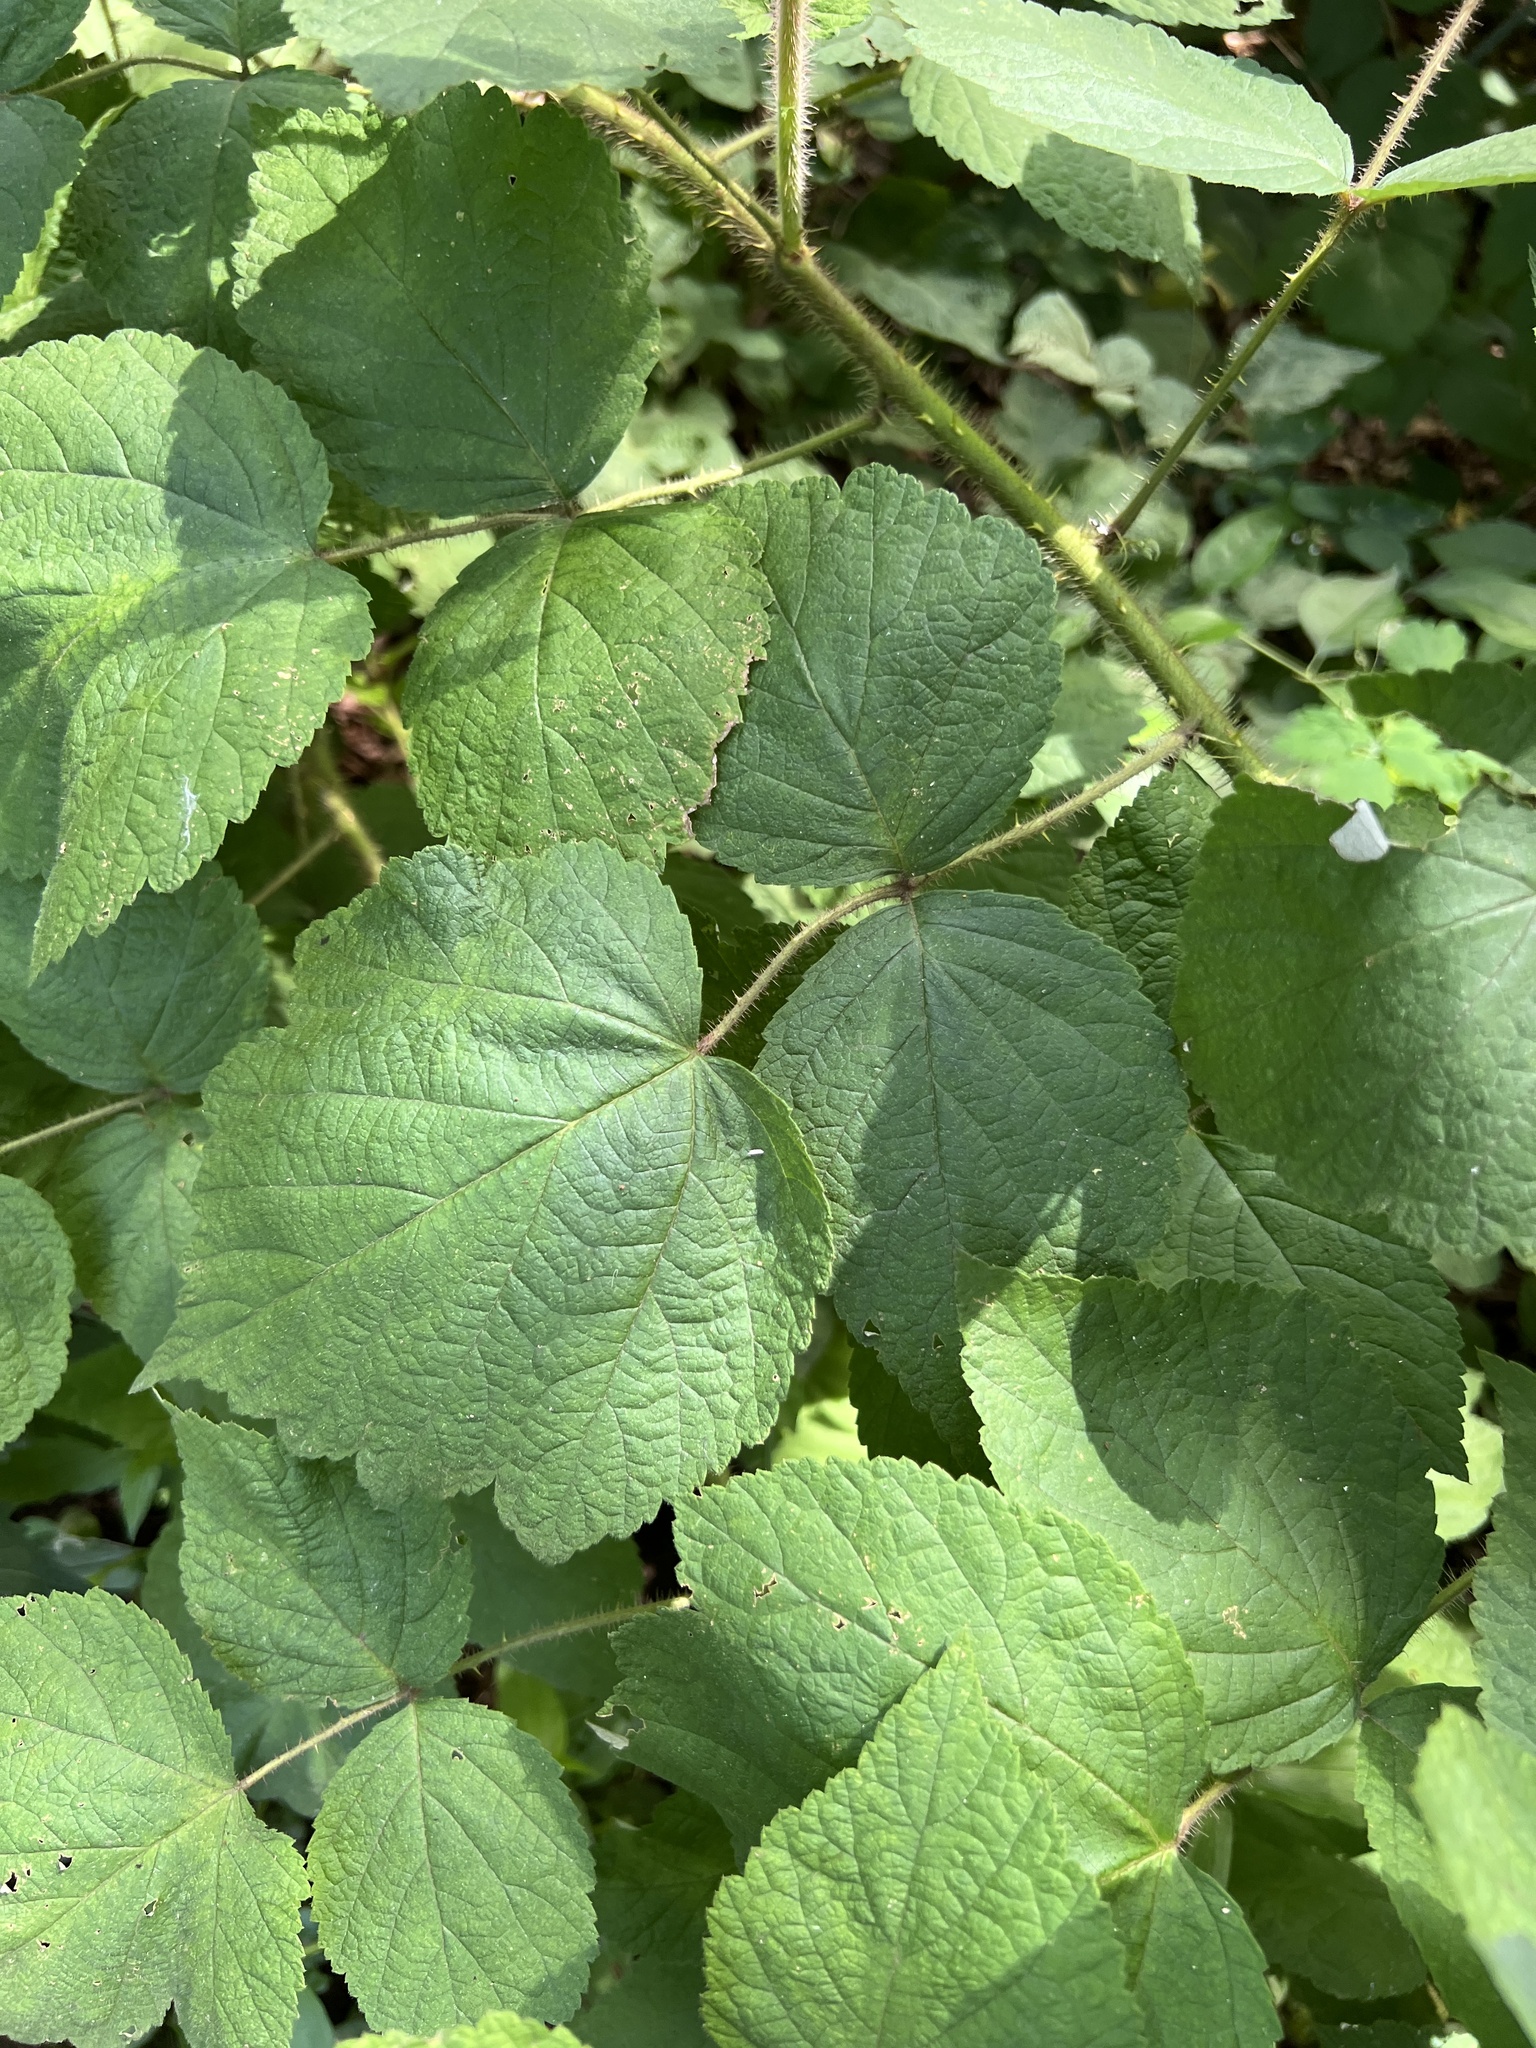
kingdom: Plantae
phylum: Tracheophyta
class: Magnoliopsida
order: Rosales
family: Rosaceae
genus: Rubus
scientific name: Rubus phoenicolasius
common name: Japanese wineberry
